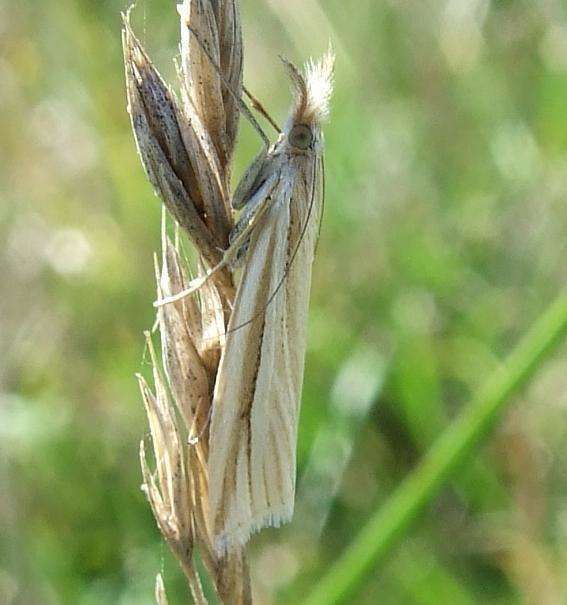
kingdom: Animalia
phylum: Arthropoda
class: Insecta
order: Lepidoptera
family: Crambidae
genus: Hednota
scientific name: Hednota grammellus
